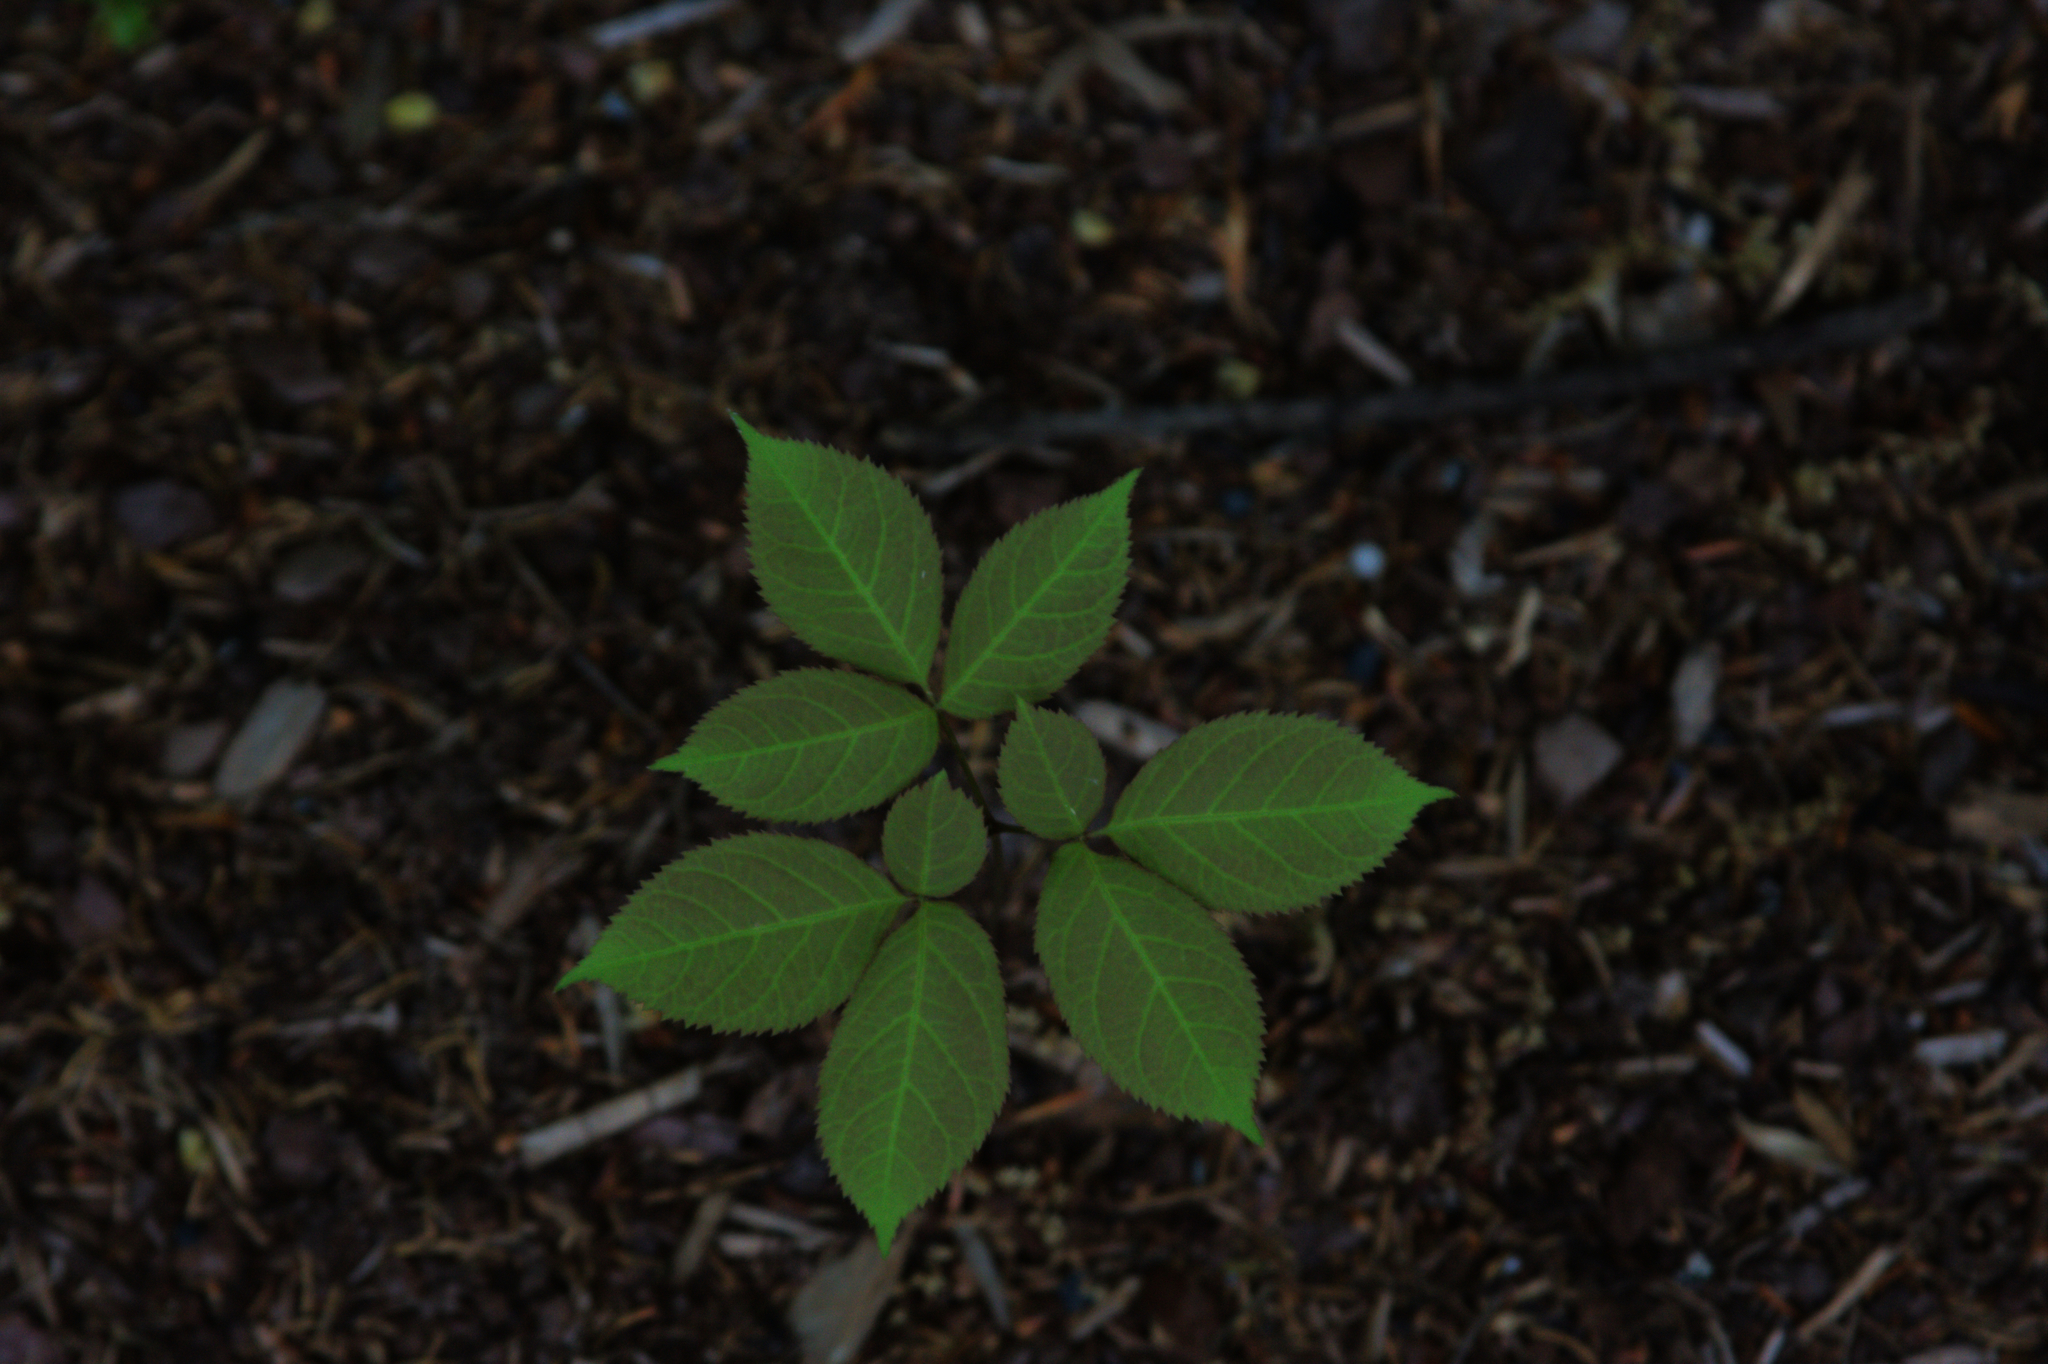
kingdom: Plantae
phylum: Tracheophyta
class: Magnoliopsida
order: Apiales
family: Araliaceae
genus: Aralia
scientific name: Aralia nudicaulis
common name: Wild sarsaparilla
